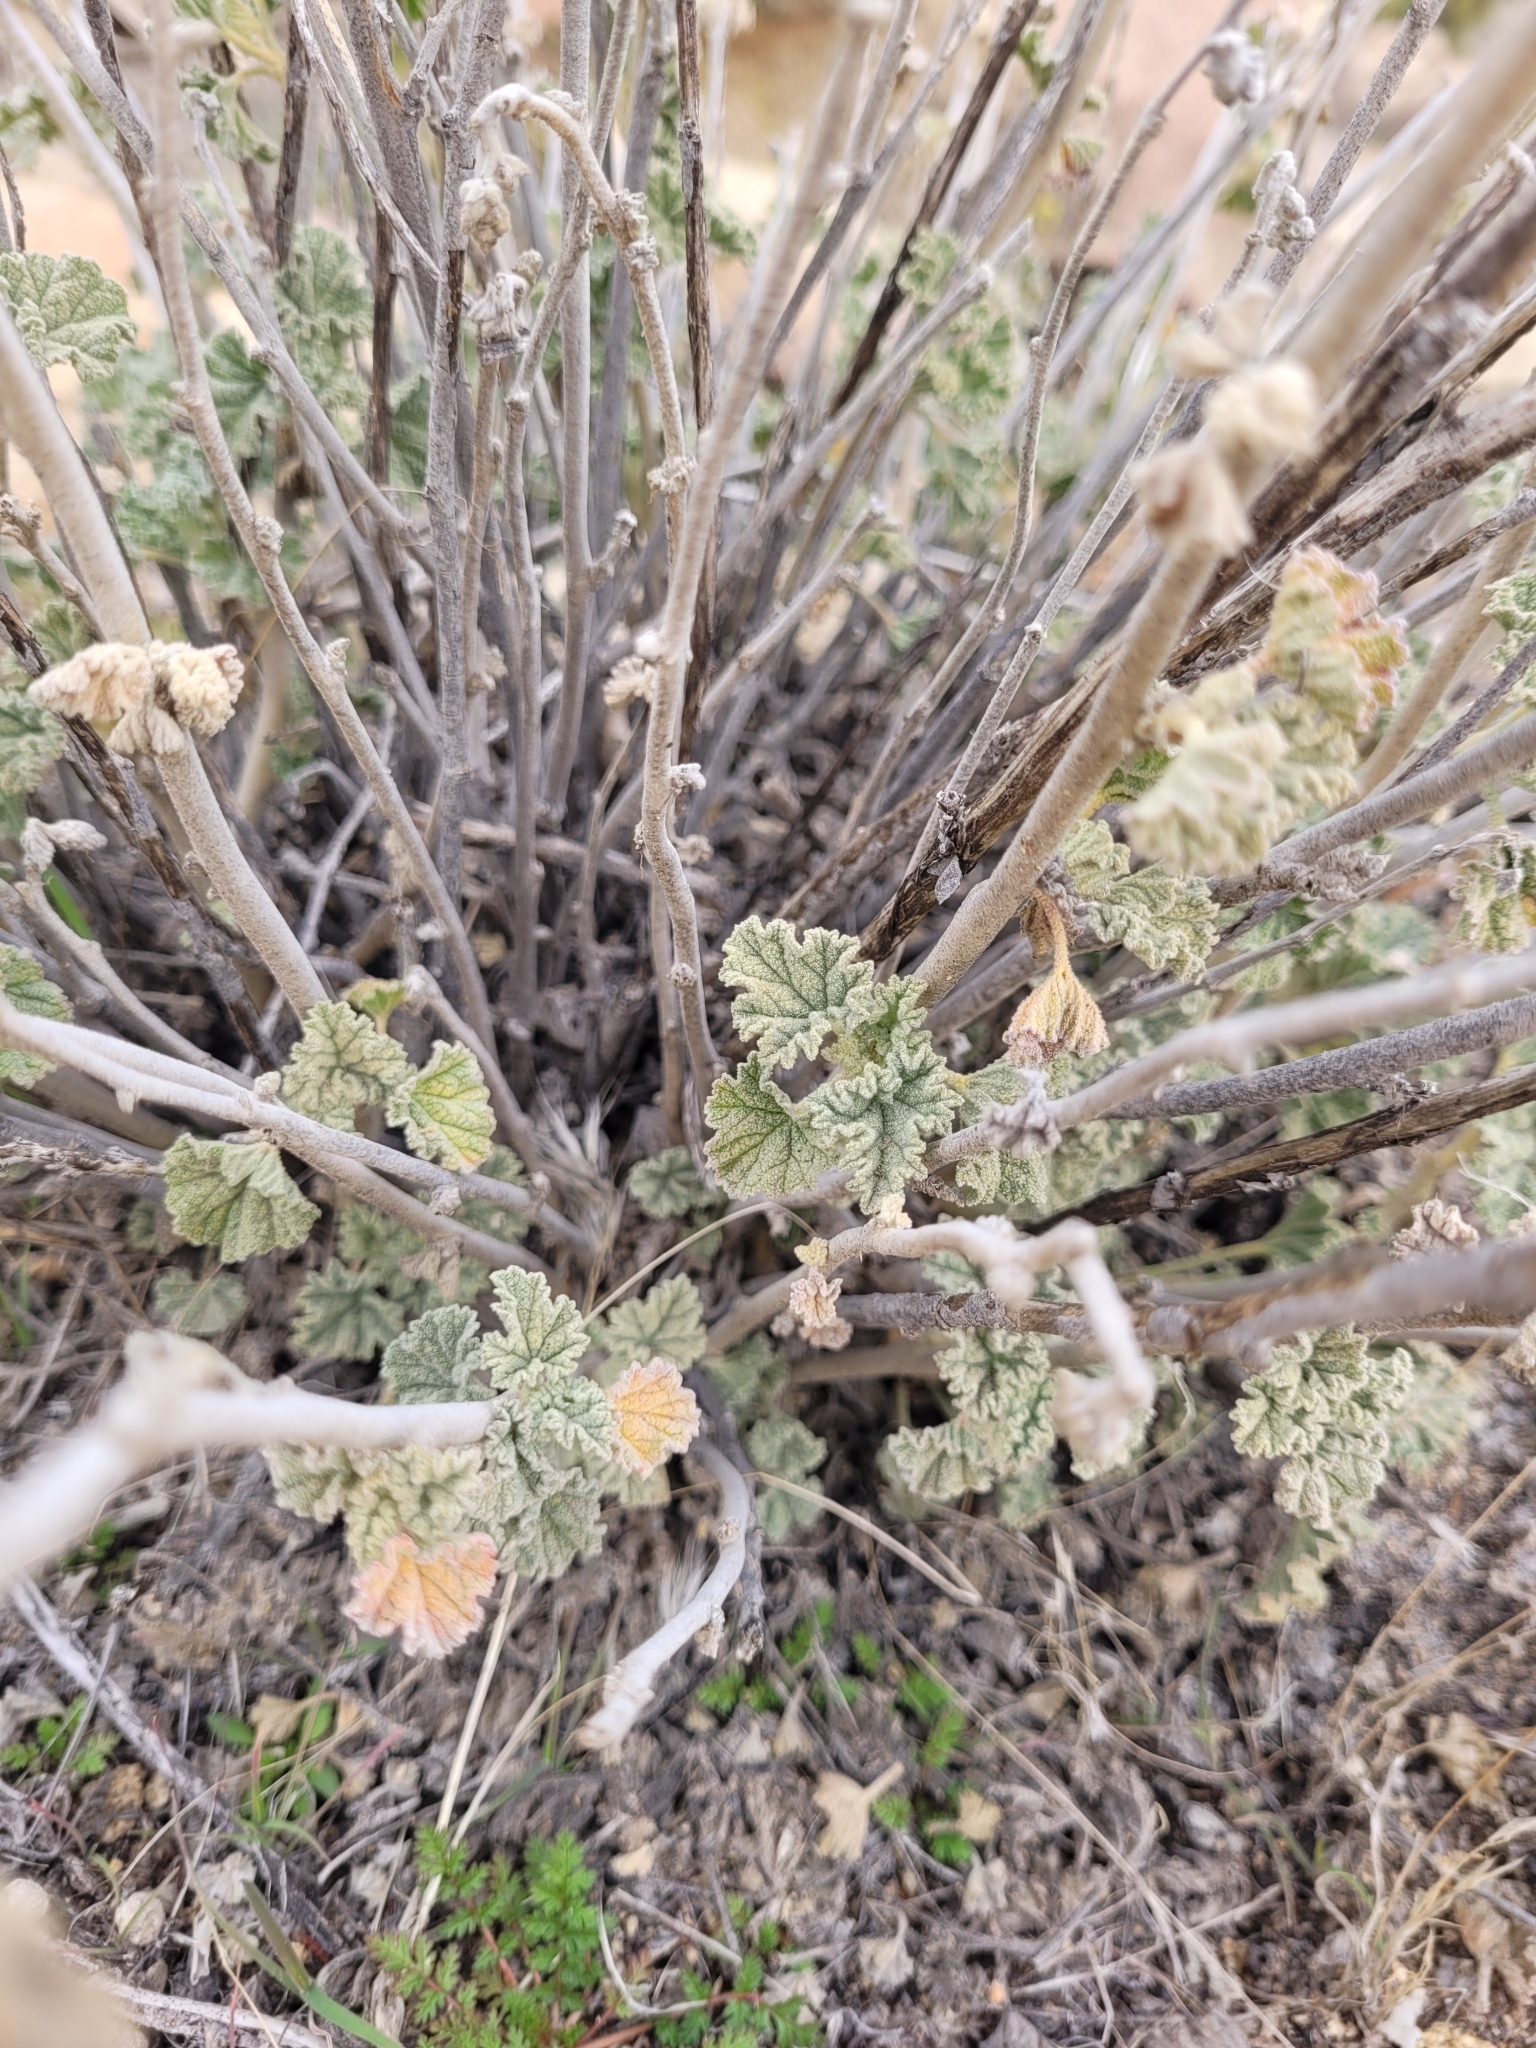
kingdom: Plantae
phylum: Tracheophyta
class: Magnoliopsida
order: Malvales
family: Malvaceae
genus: Sphaeralcea
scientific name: Sphaeralcea ambigua
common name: Apricot globe-mallow
